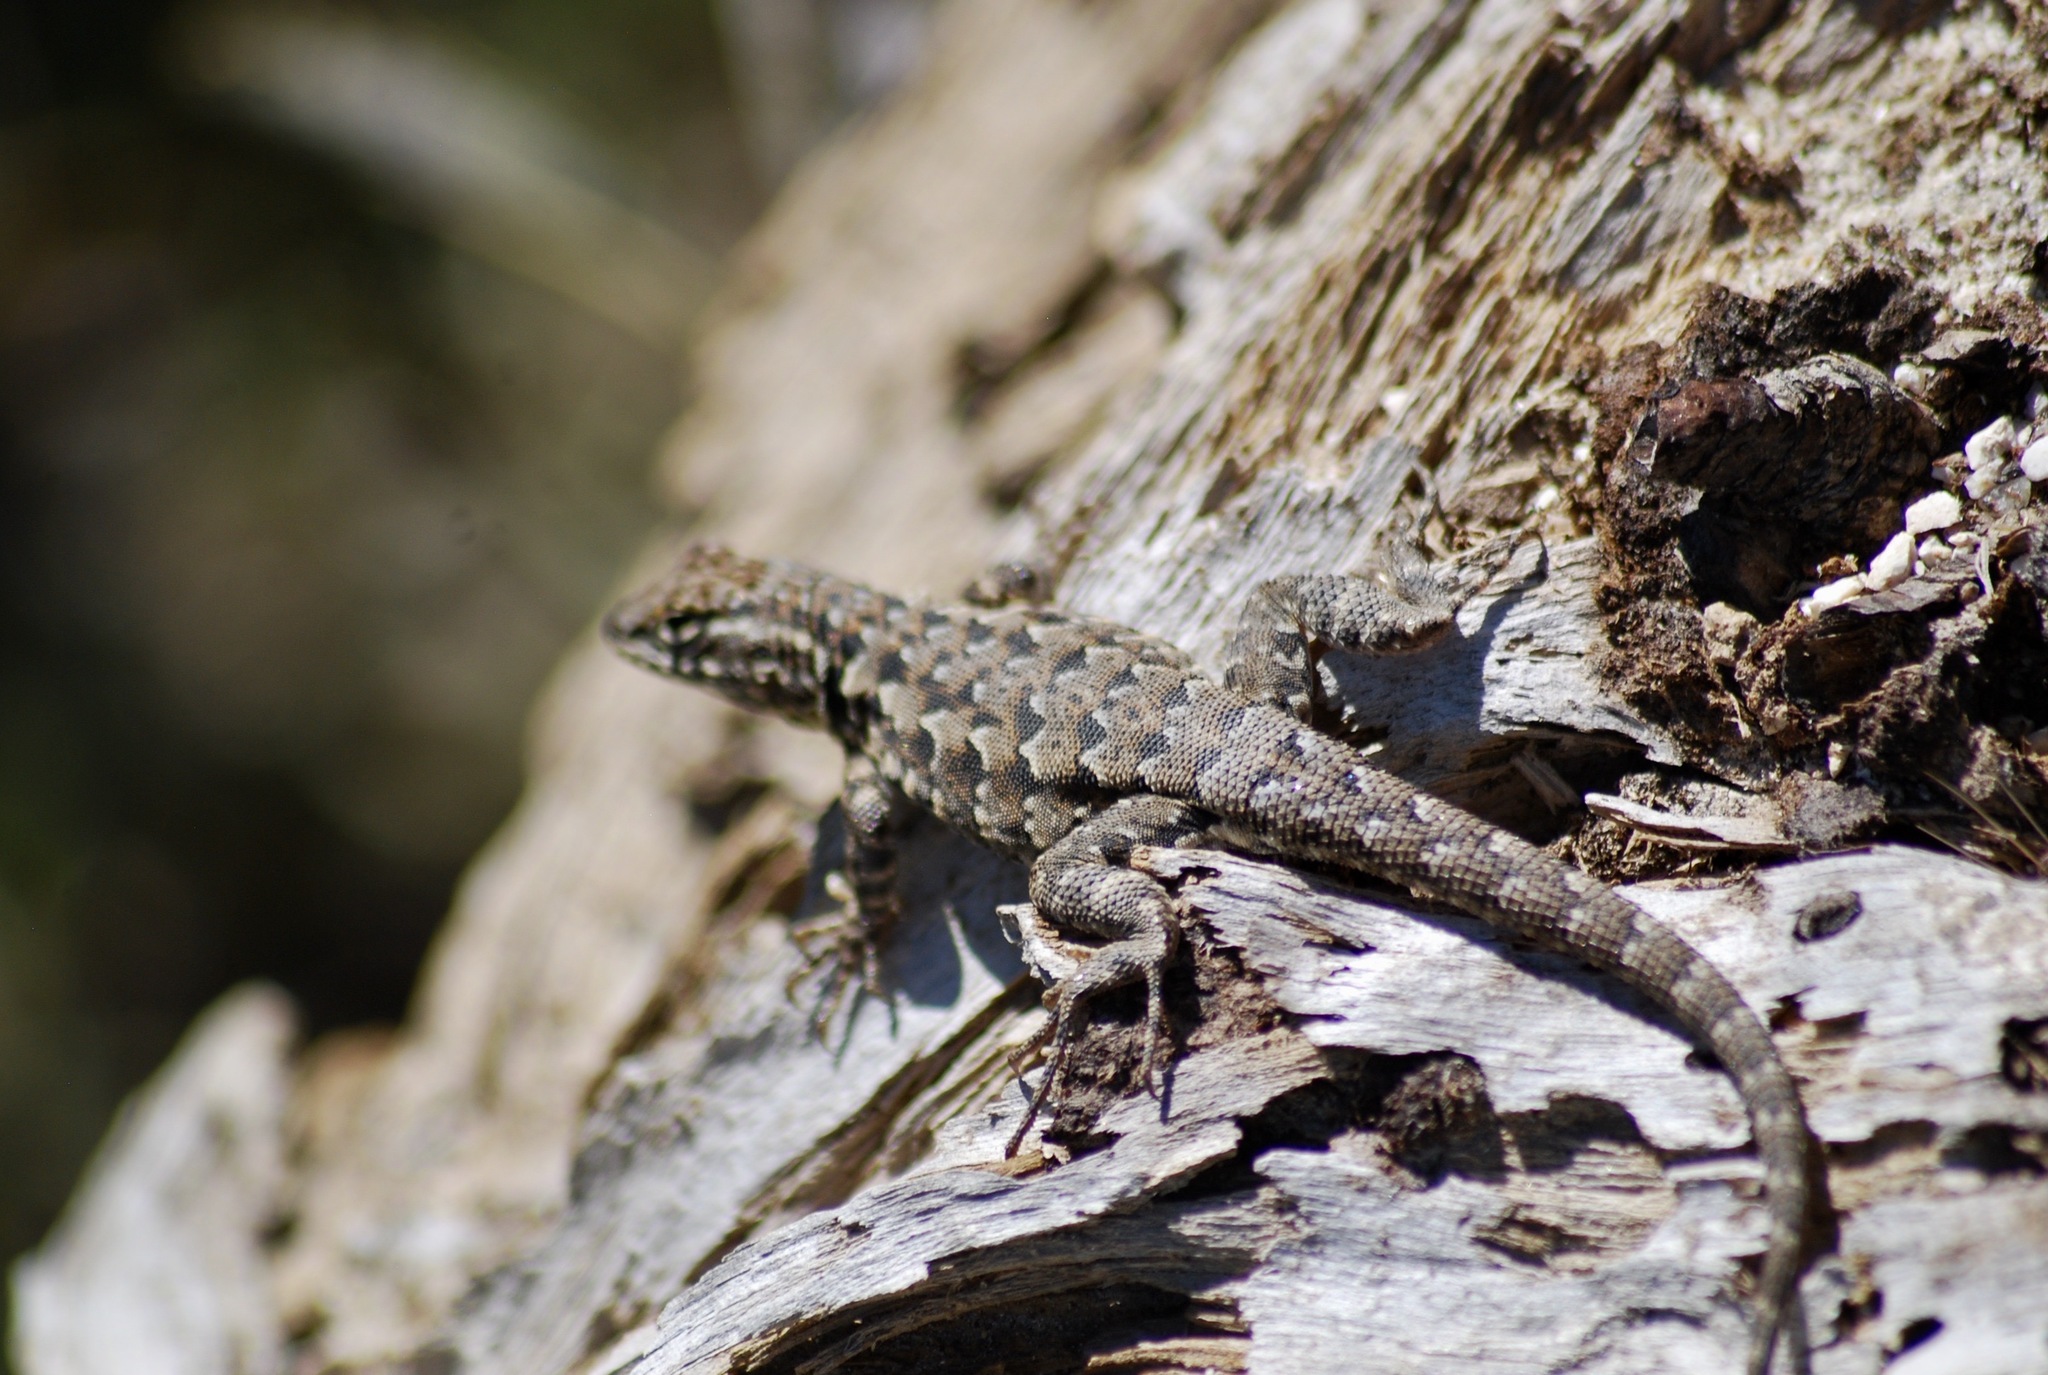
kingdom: Animalia
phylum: Chordata
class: Squamata
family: Phrynosomatidae
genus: Uta
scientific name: Uta stansburiana
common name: Side-blotched lizard
